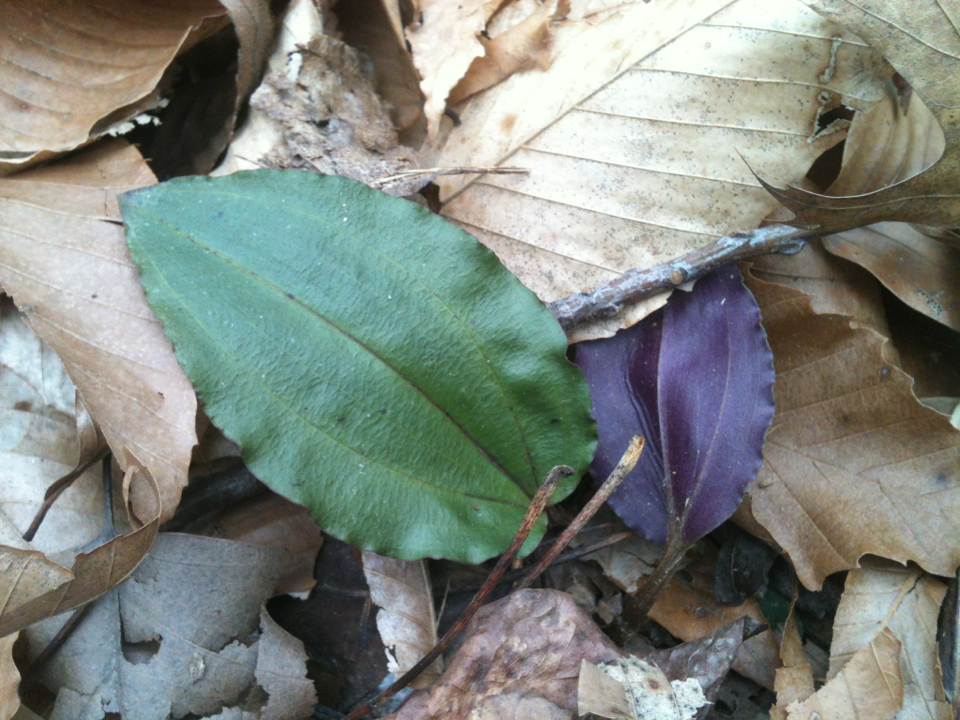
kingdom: Plantae
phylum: Tracheophyta
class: Liliopsida
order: Asparagales
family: Orchidaceae
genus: Tipularia
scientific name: Tipularia discolor
